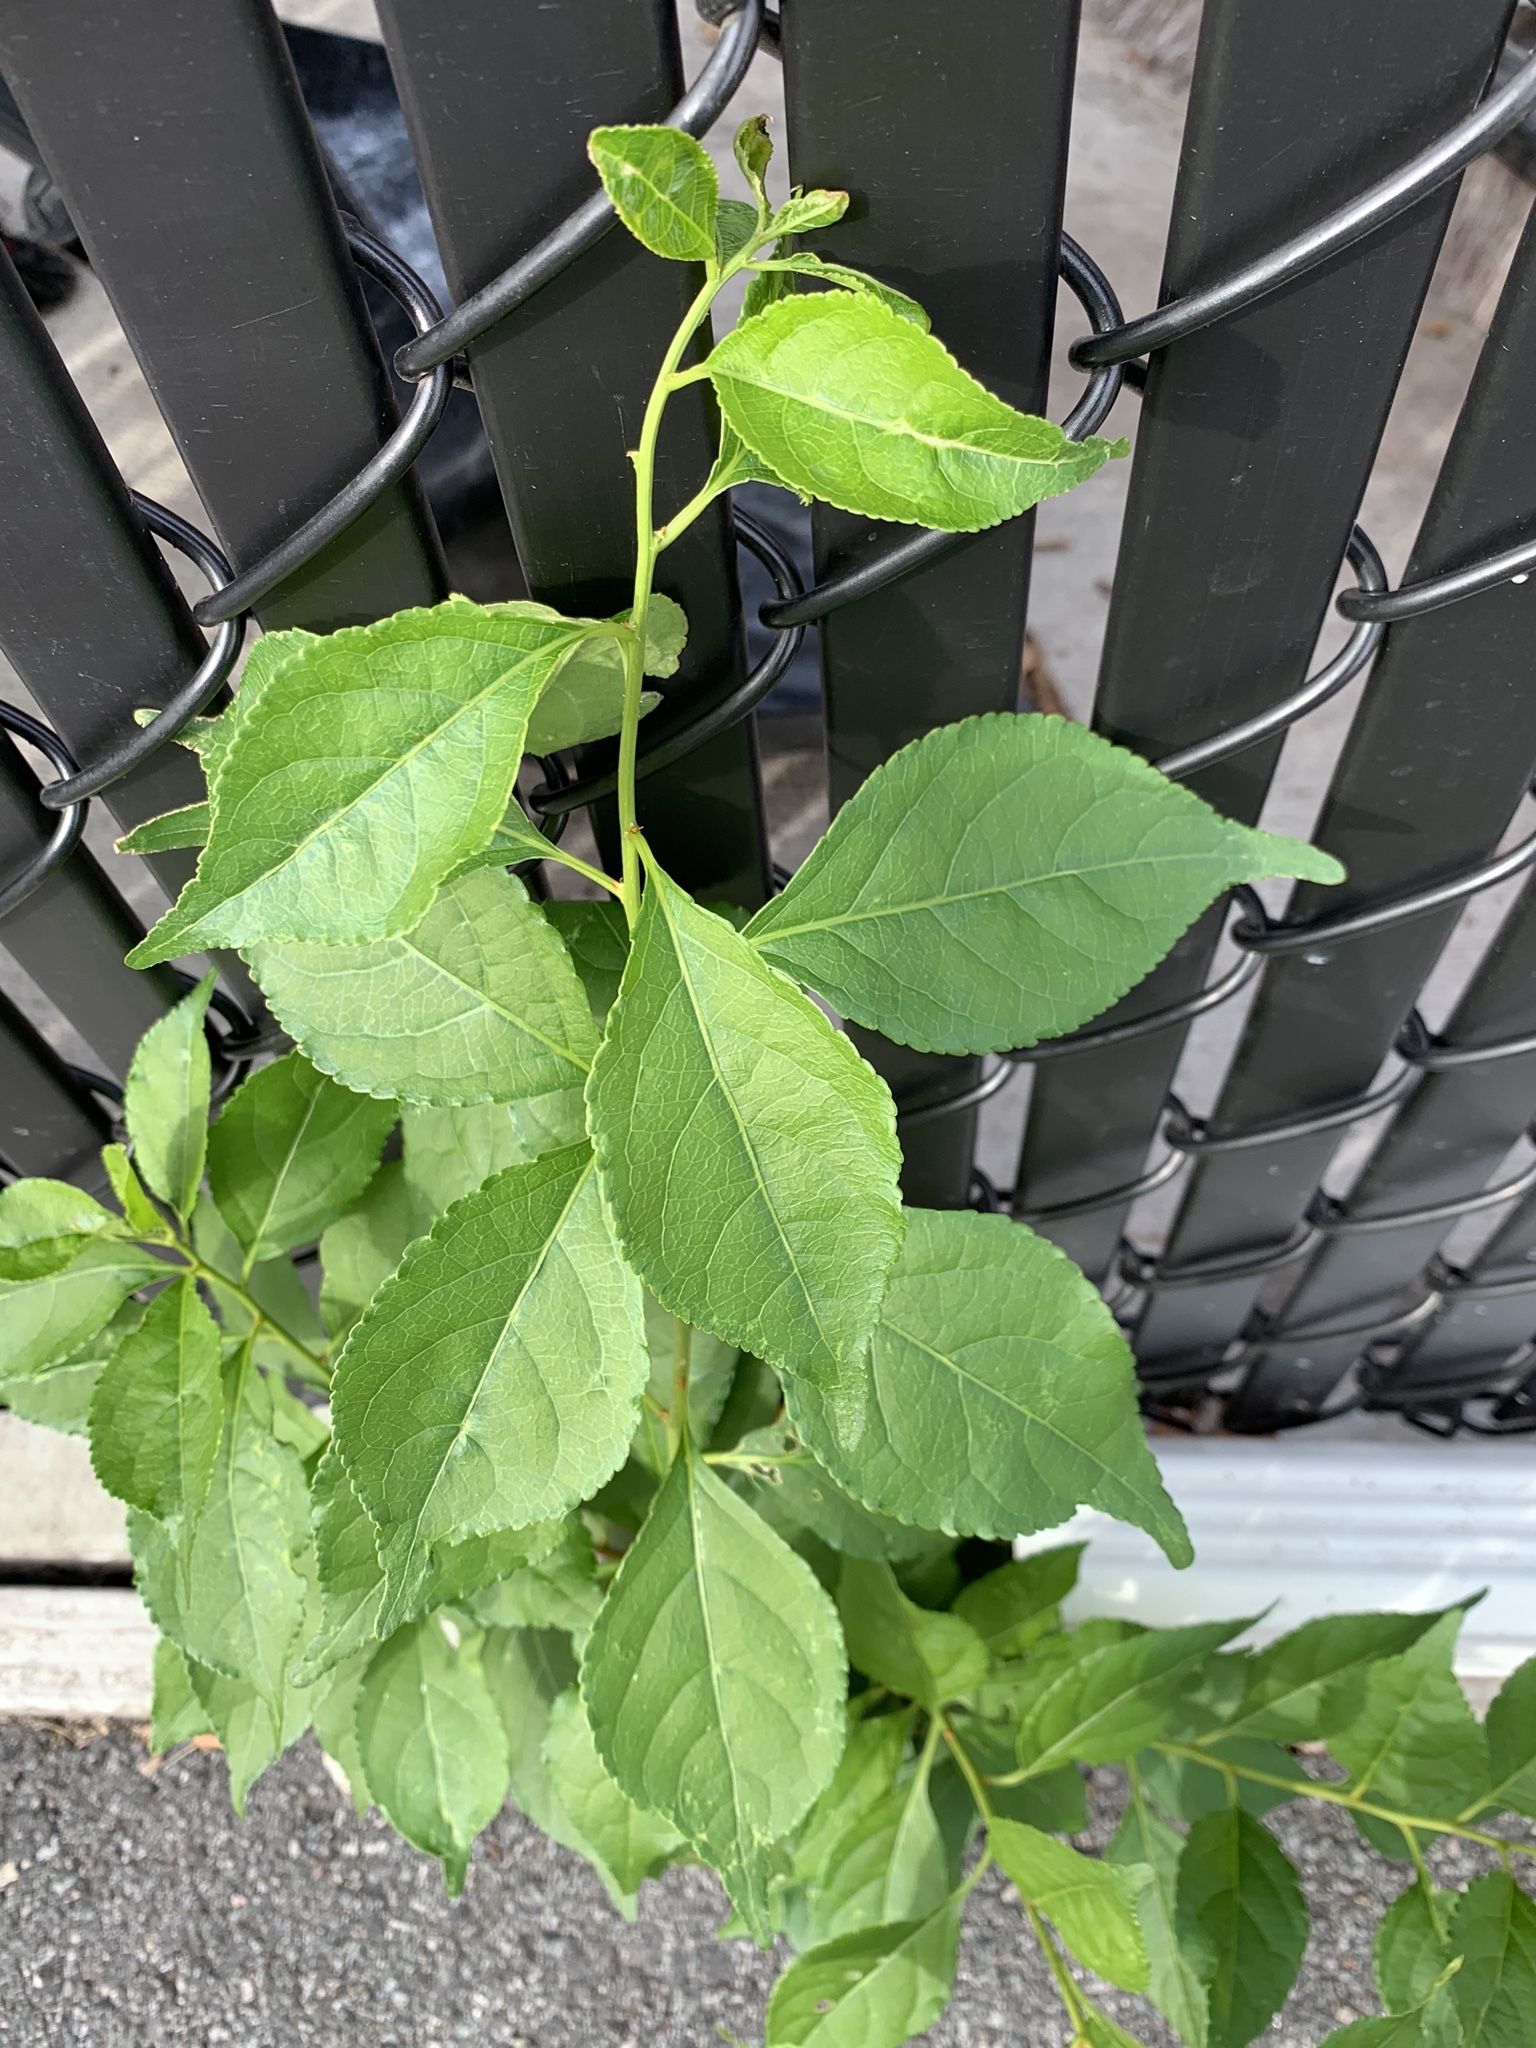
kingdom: Plantae
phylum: Tracheophyta
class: Magnoliopsida
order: Celastrales
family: Celastraceae
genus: Celastrus
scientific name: Celastrus orbiculatus
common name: Oriental bittersweet
